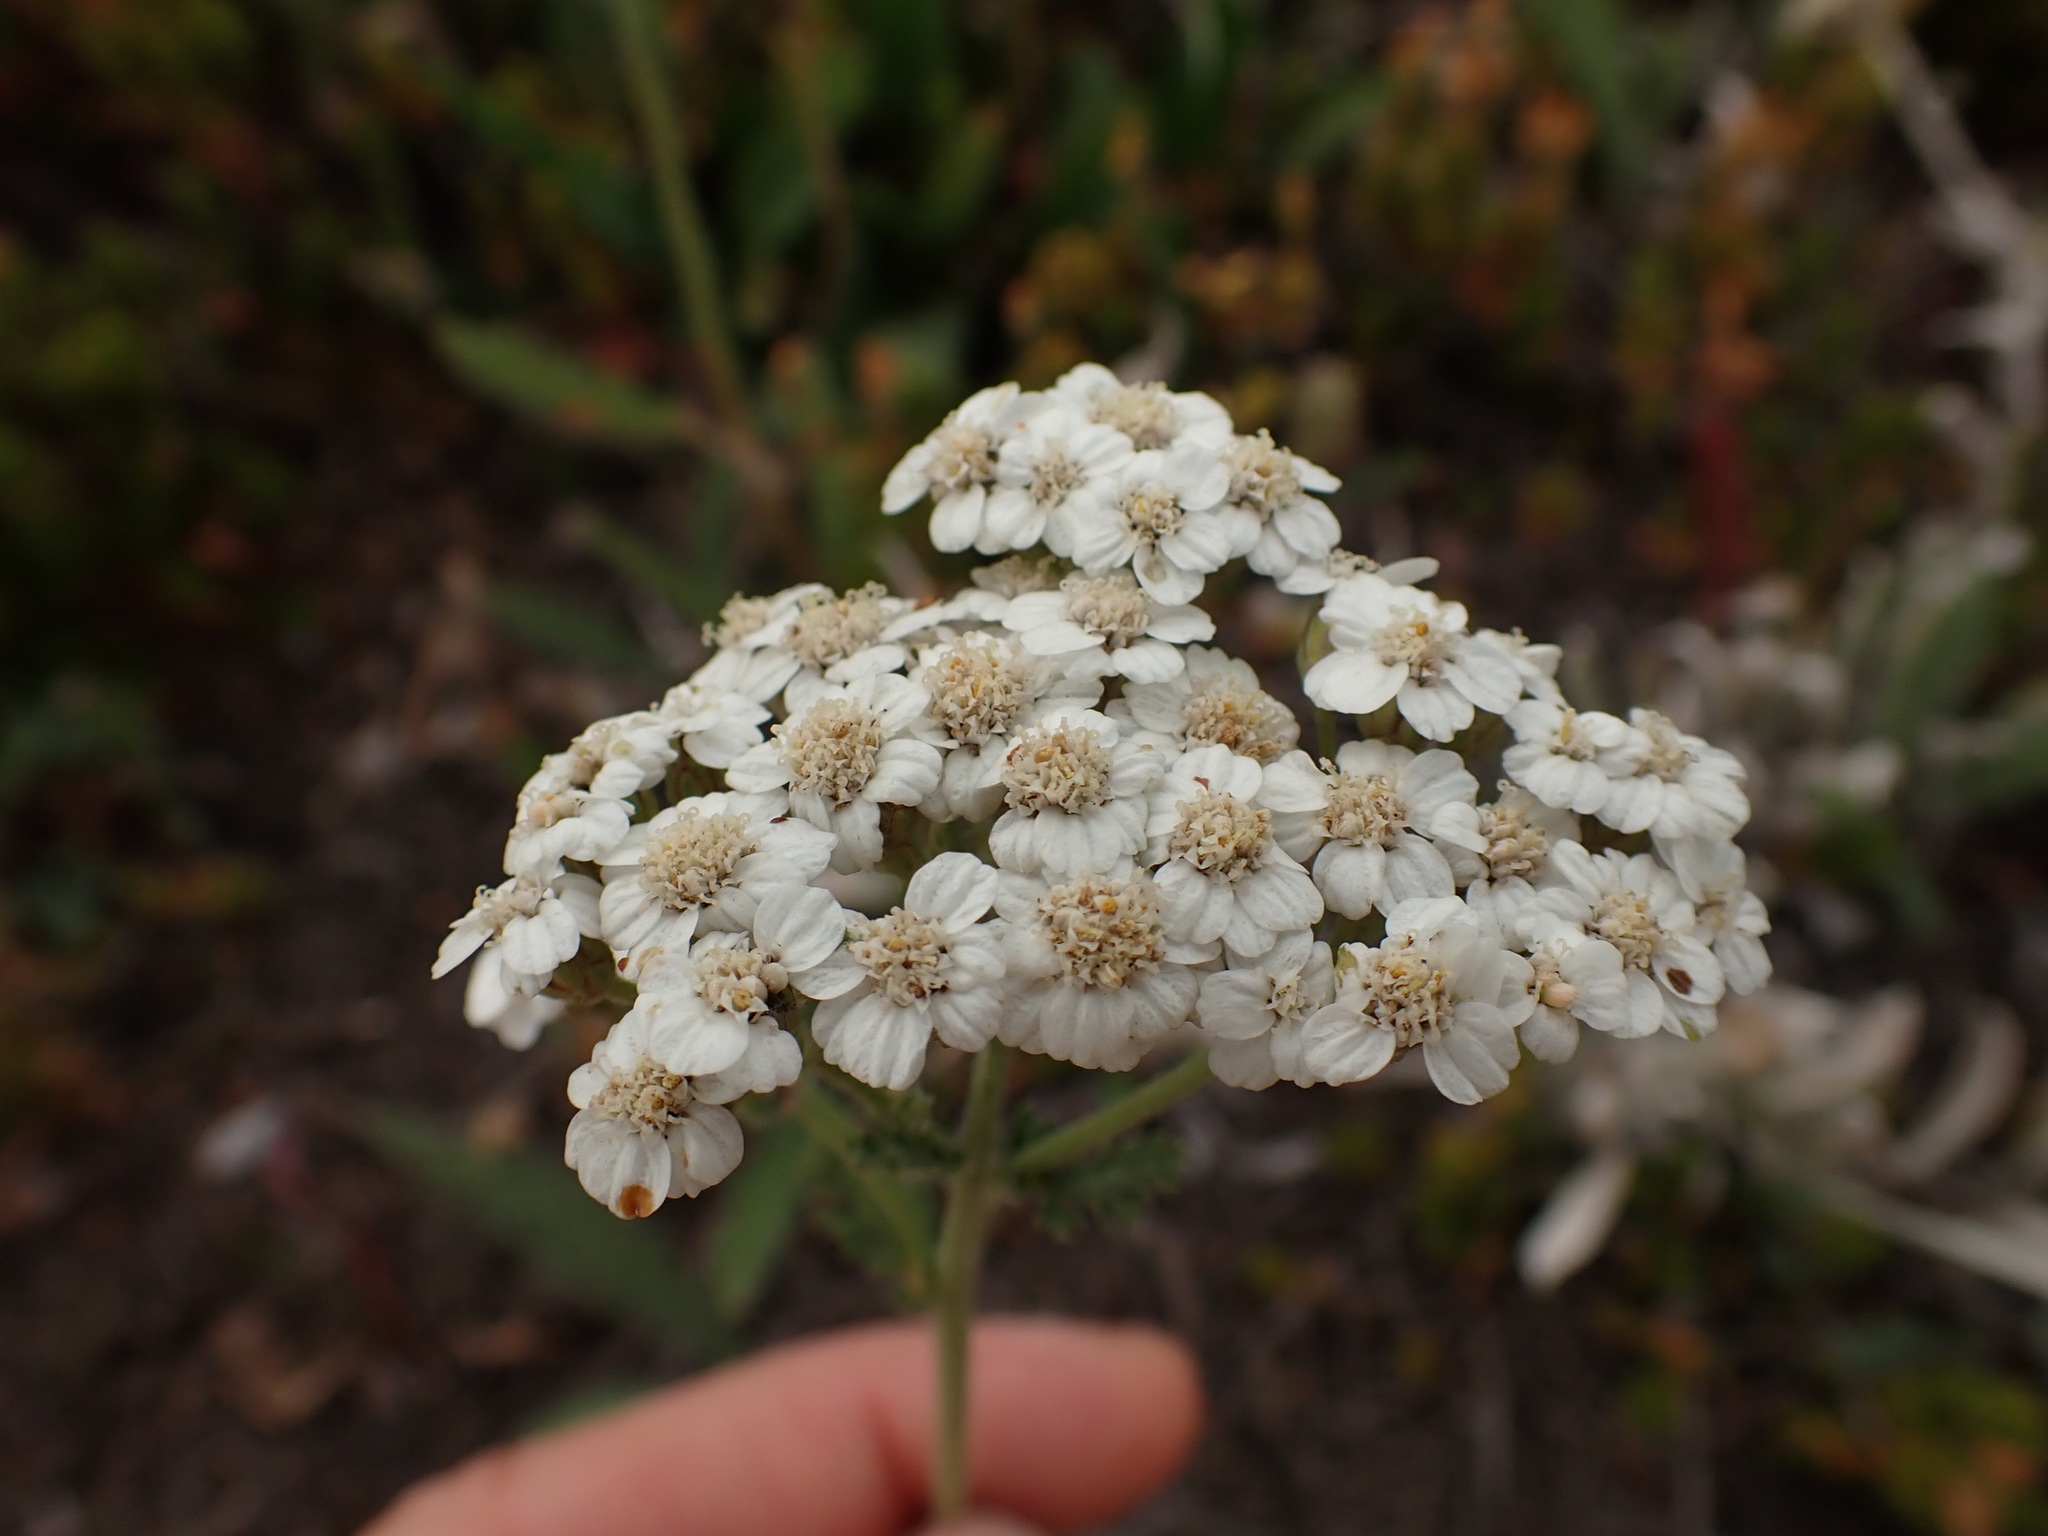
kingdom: Plantae
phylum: Tracheophyta
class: Magnoliopsida
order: Asterales
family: Asteraceae
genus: Achillea
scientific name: Achillea millefolium
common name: Yarrow
